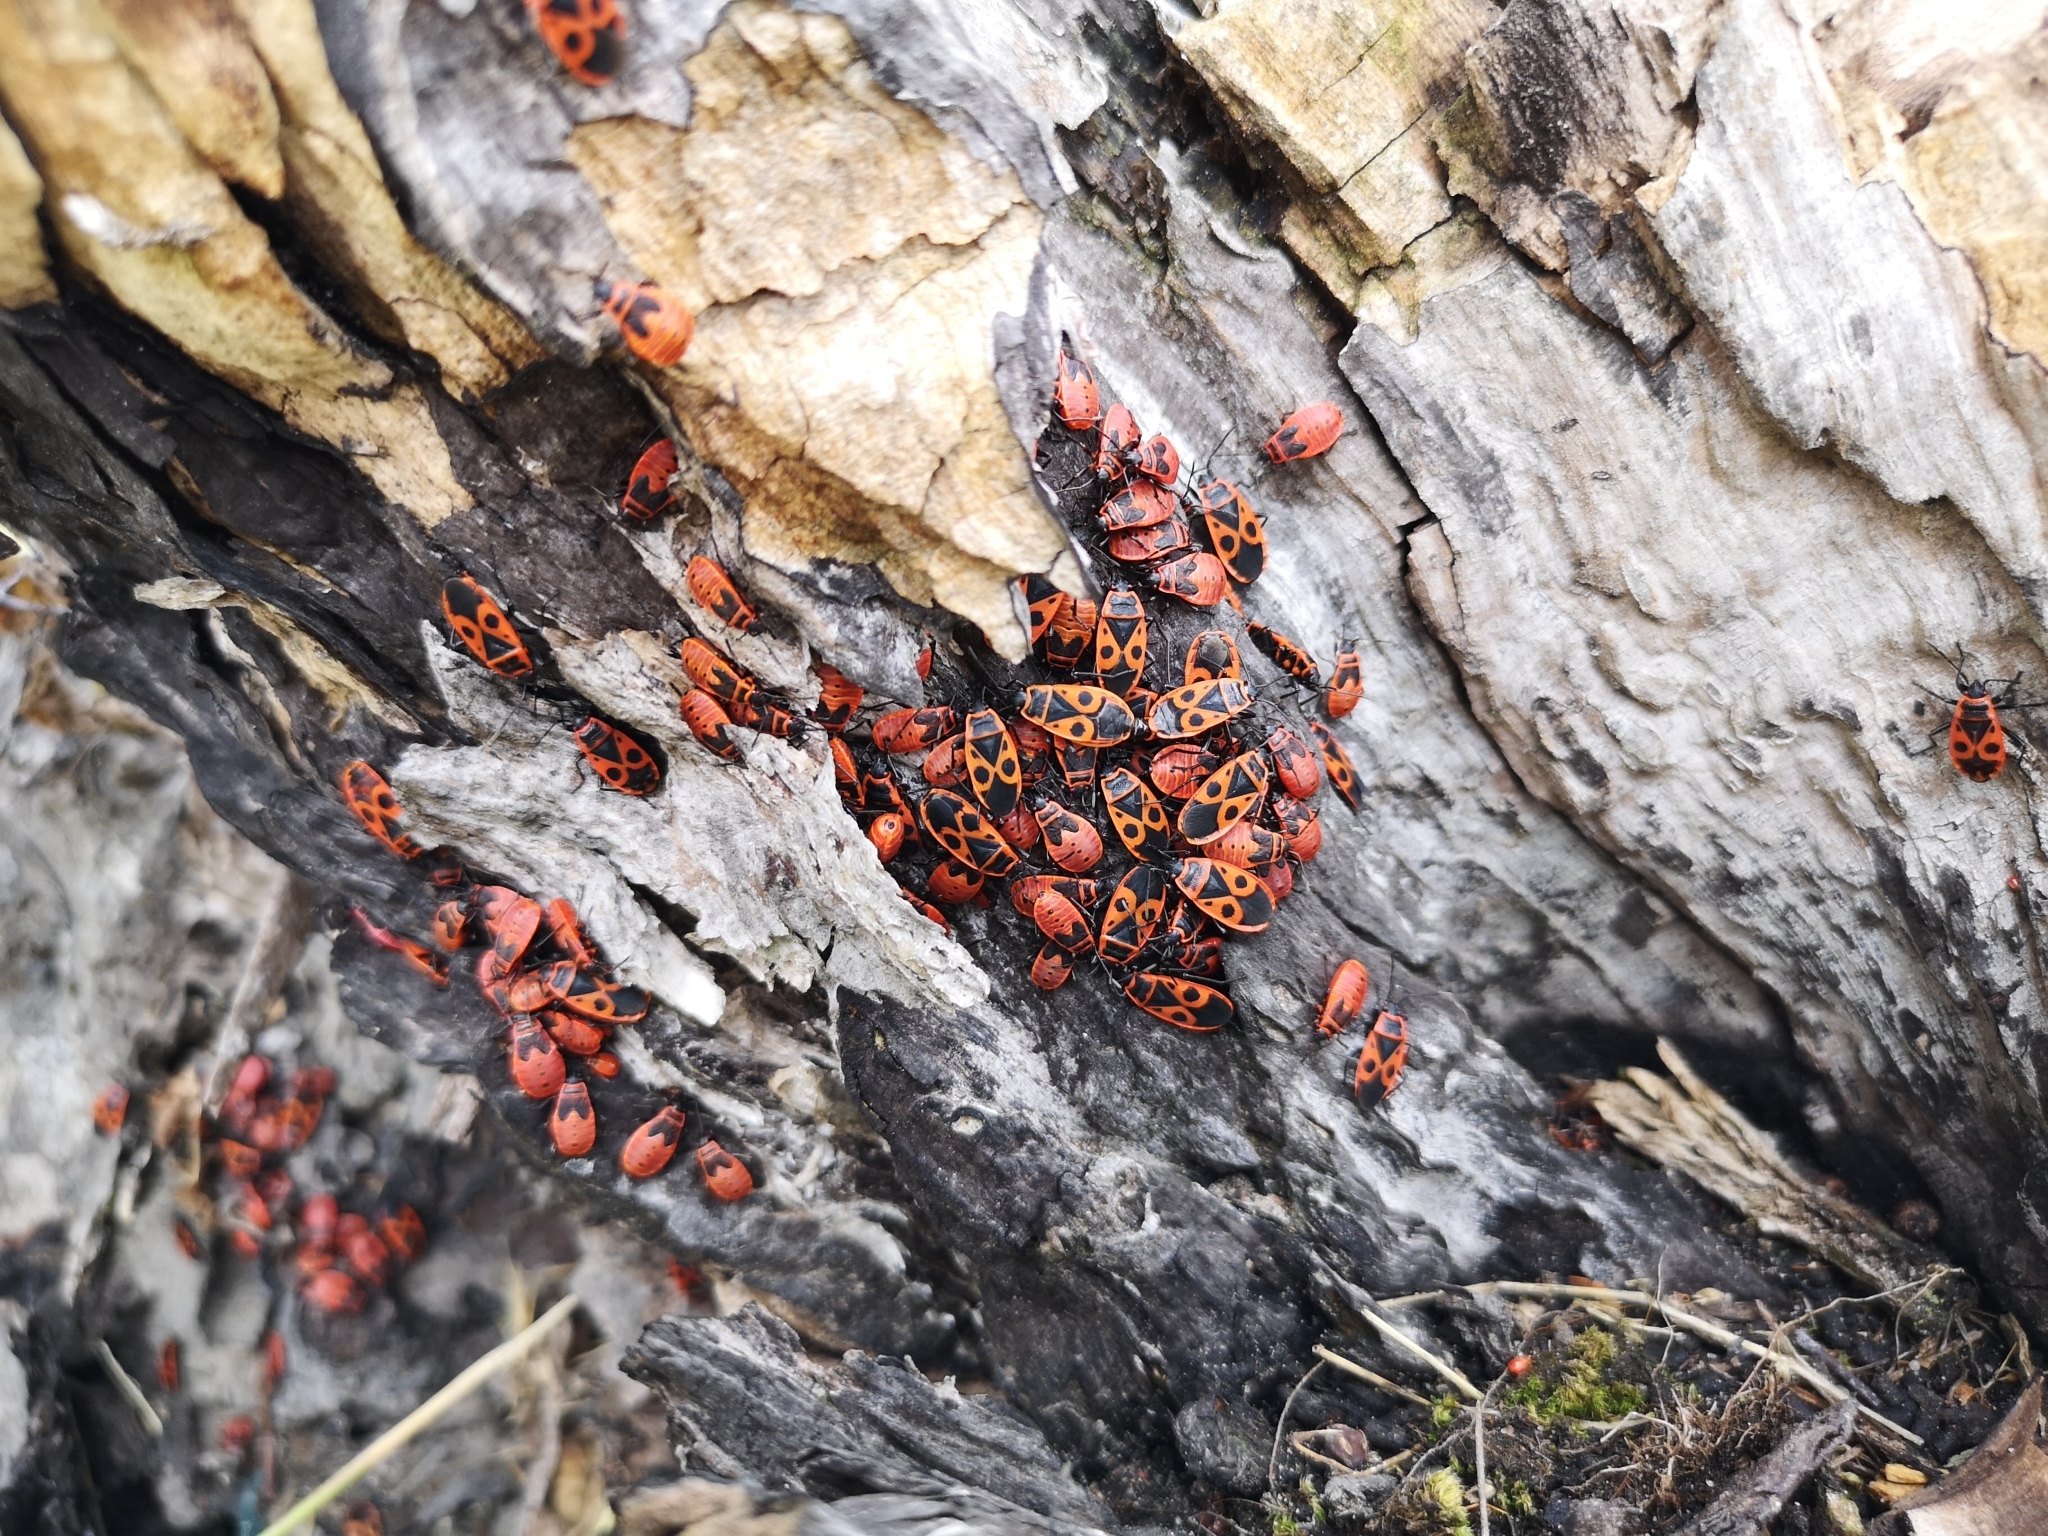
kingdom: Animalia
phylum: Arthropoda
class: Insecta
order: Hemiptera
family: Pyrrhocoridae
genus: Pyrrhocoris
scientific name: Pyrrhocoris apterus
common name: Firebug
